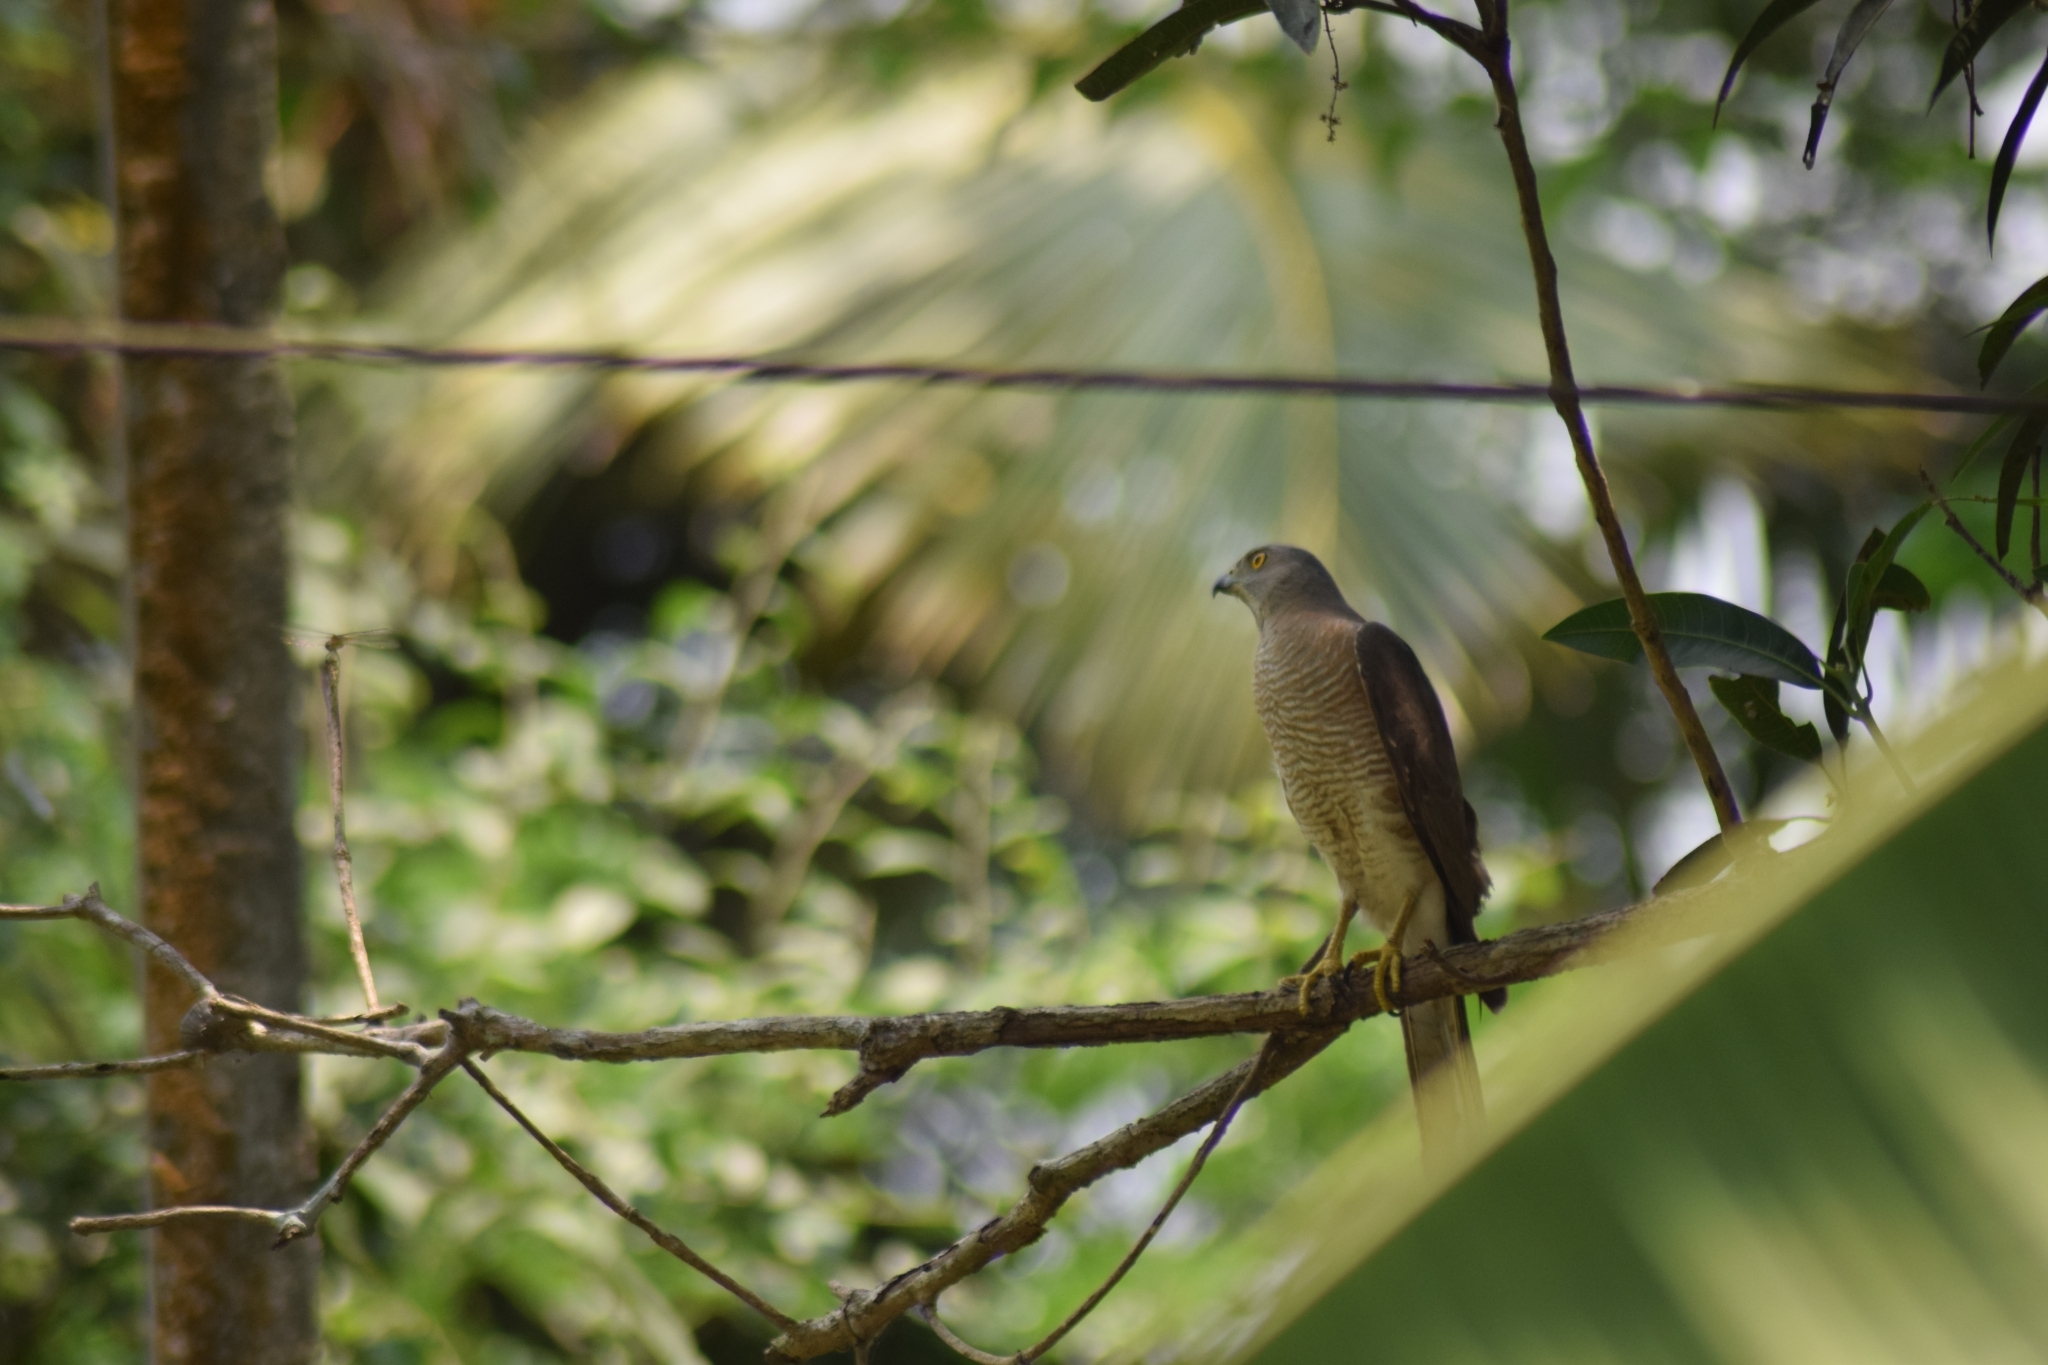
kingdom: Animalia
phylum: Chordata
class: Aves
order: Accipitriformes
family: Accipitridae
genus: Accipiter
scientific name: Accipiter badius
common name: Shikra
